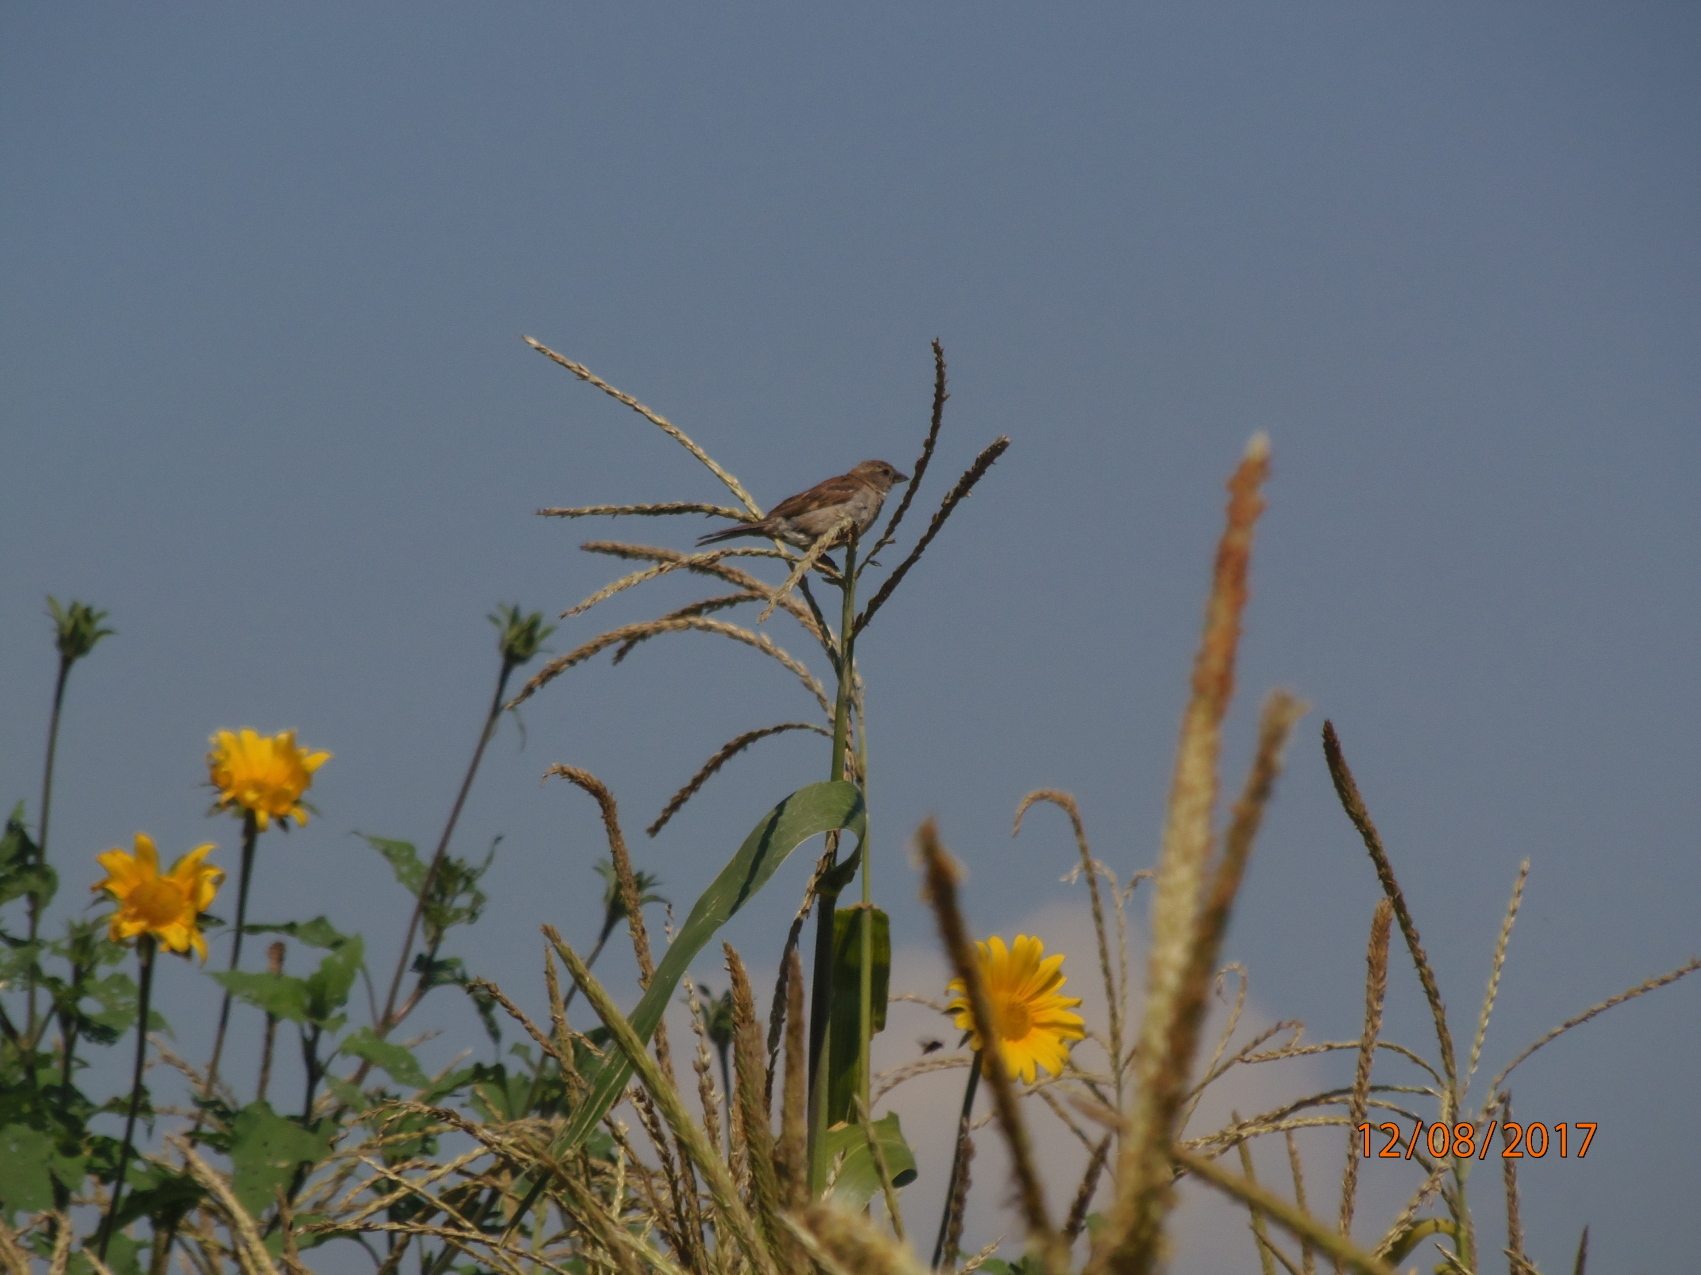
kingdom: Animalia
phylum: Chordata
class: Aves
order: Passeriformes
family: Passeridae
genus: Passer
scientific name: Passer domesticus
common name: House sparrow
